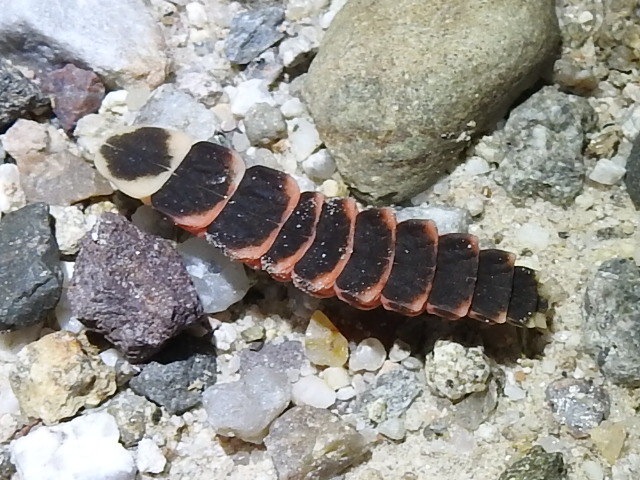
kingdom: Animalia
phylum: Arthropoda
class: Insecta
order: Coleoptera
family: Lampyridae
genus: Pleotomus
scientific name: Pleotomus nigripennis
